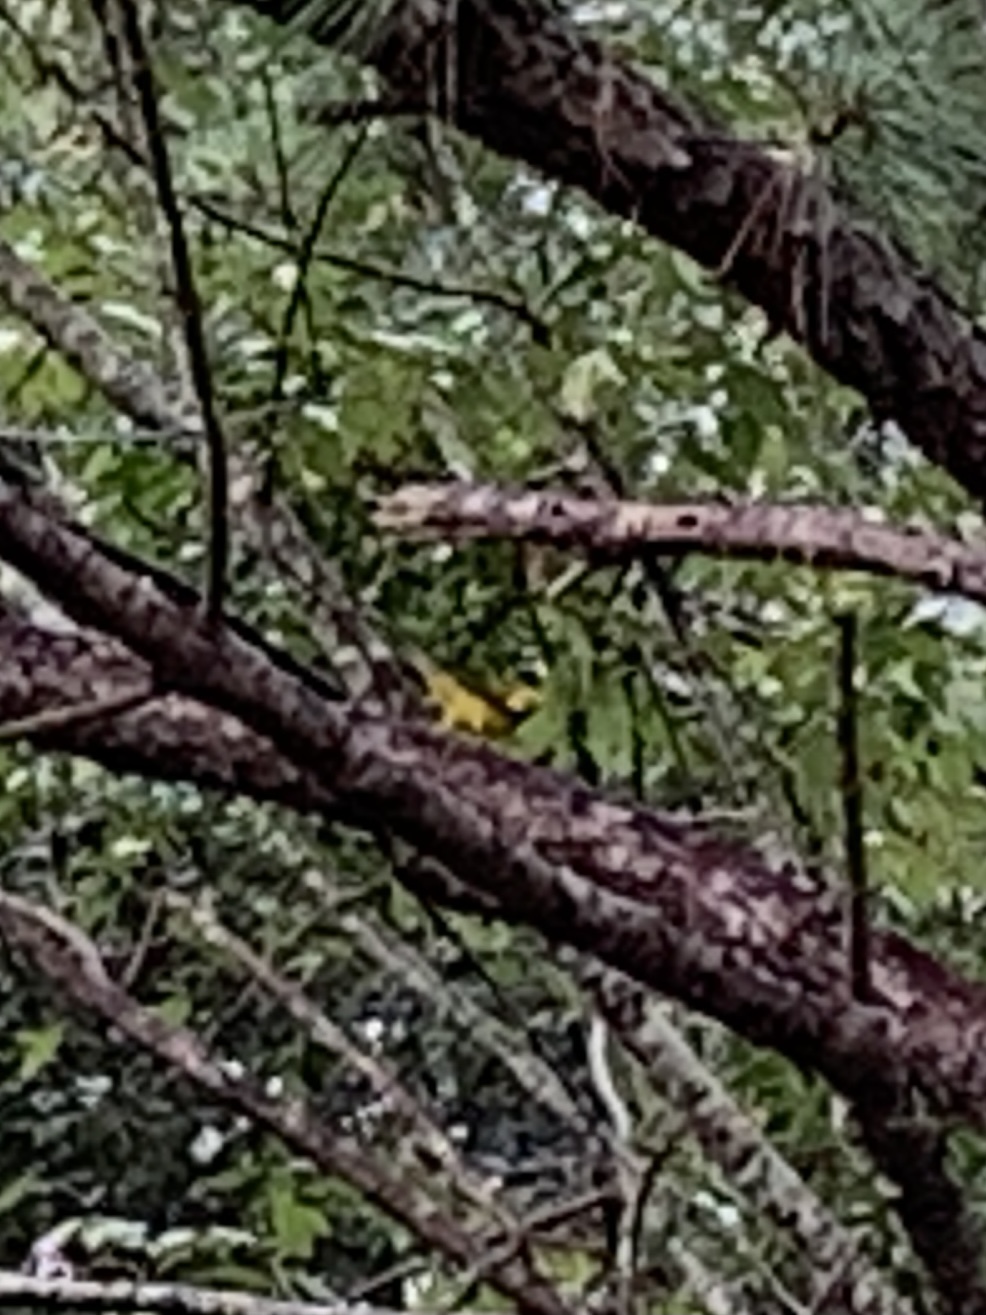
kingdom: Animalia
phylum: Chordata
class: Aves
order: Passeriformes
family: Parulidae
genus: Setophaga
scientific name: Setophaga citrina
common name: Hooded warbler
